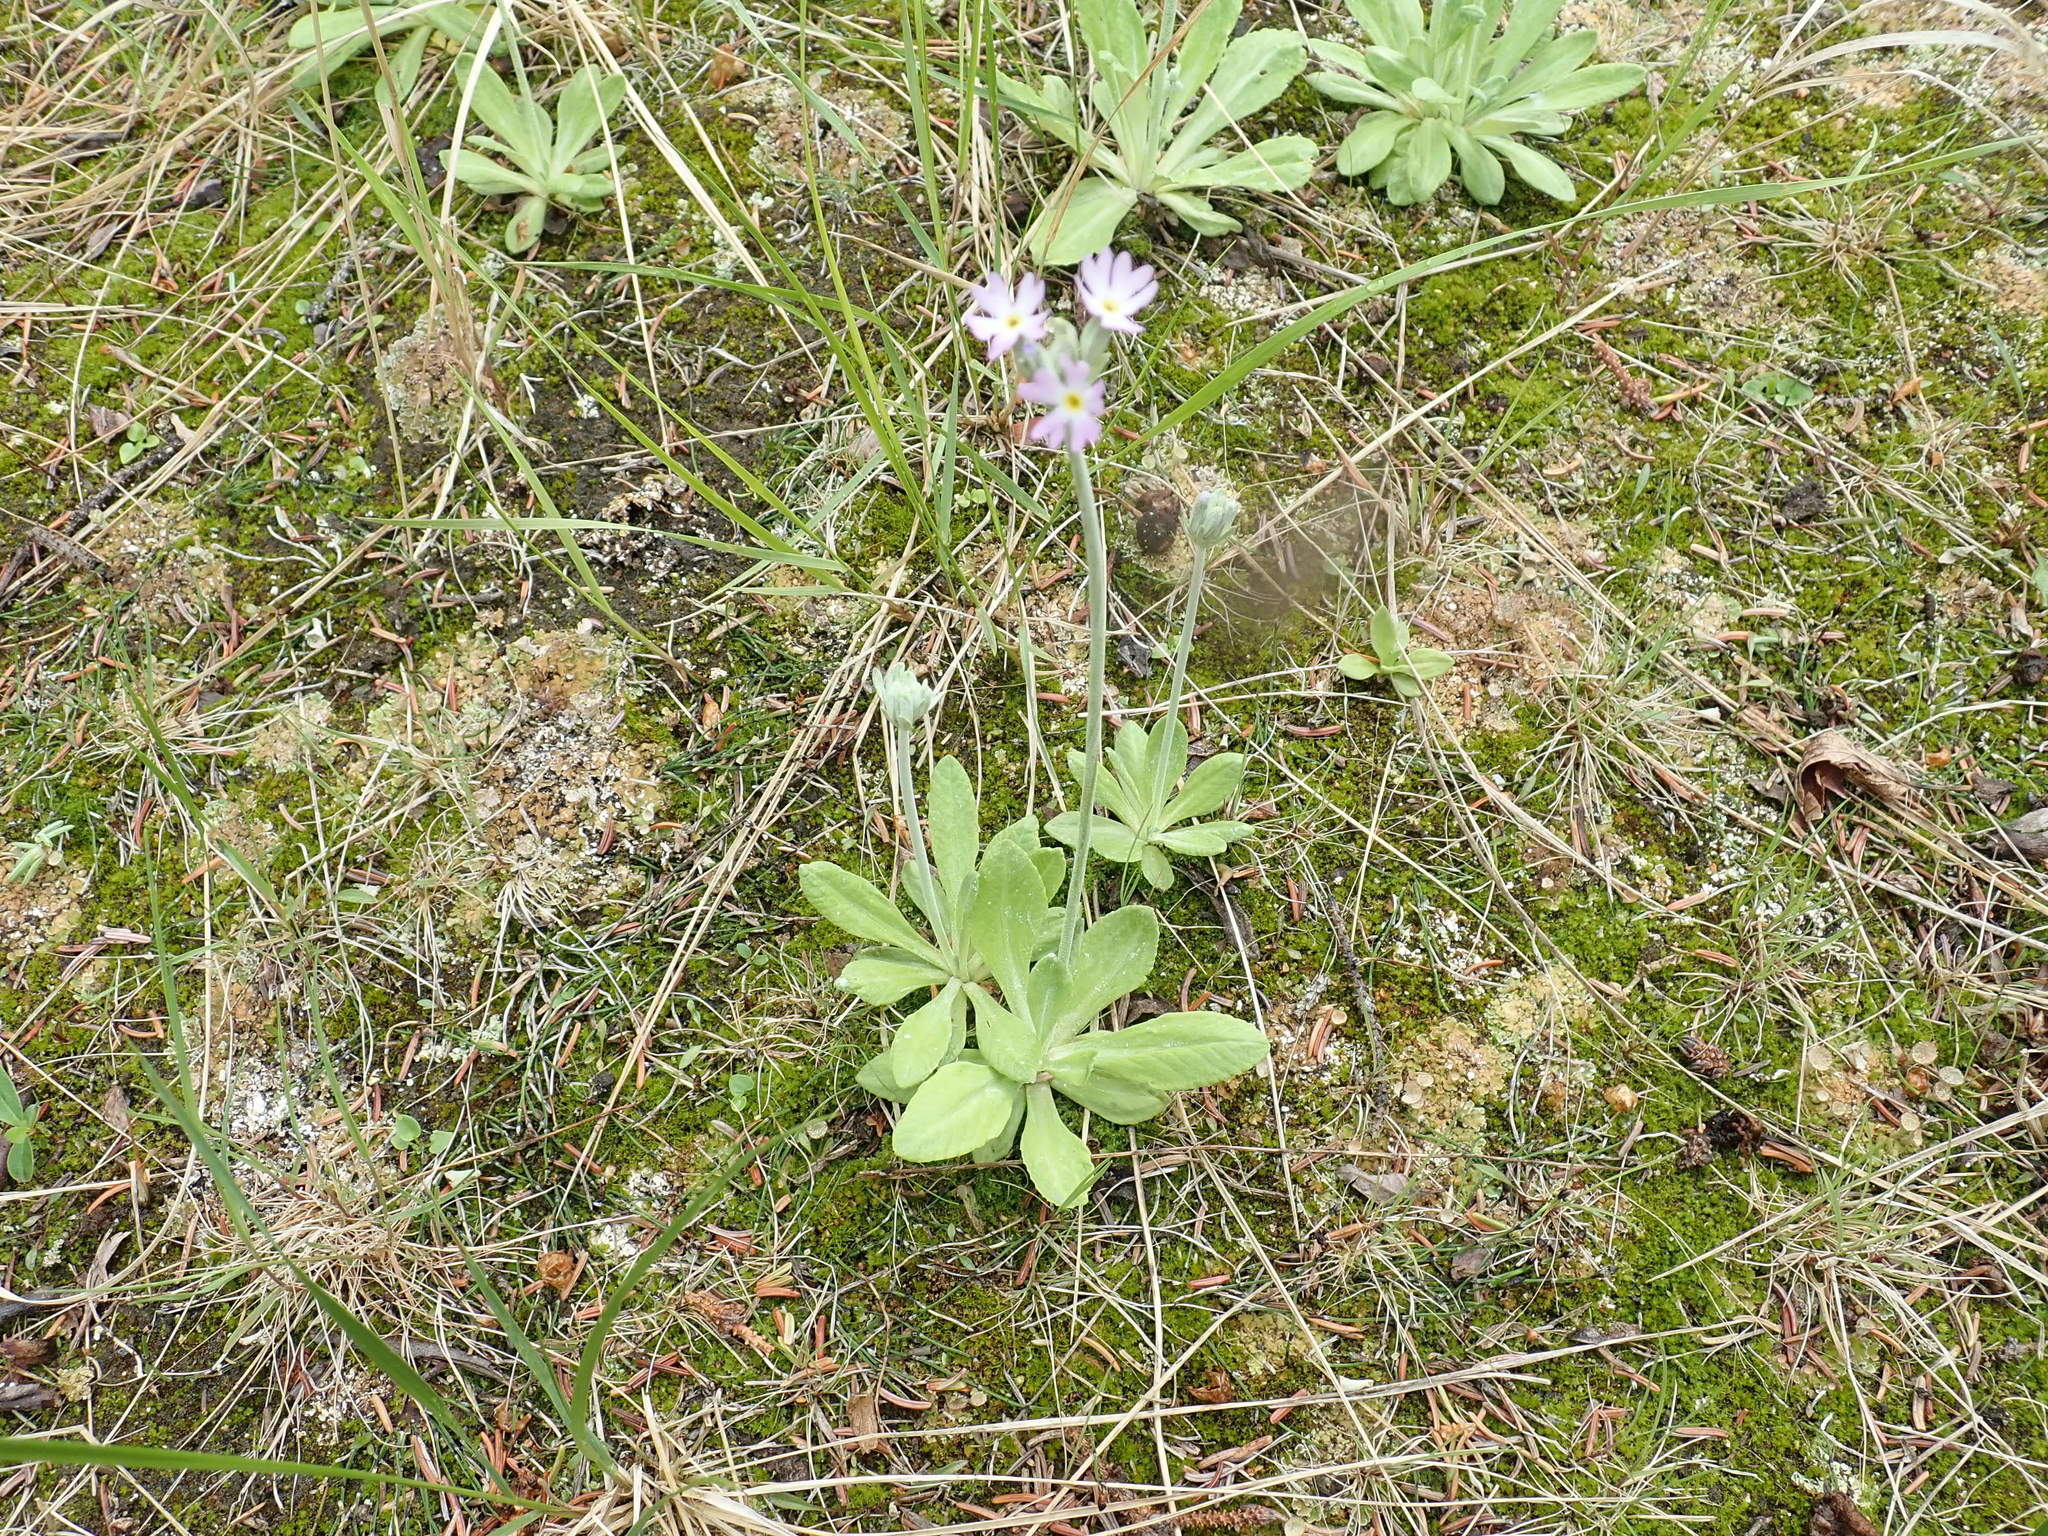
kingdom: Plantae
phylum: Tracheophyta
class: Magnoliopsida
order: Ericales
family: Primulaceae
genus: Primula
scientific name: Primula incana
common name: Hoary primrose
